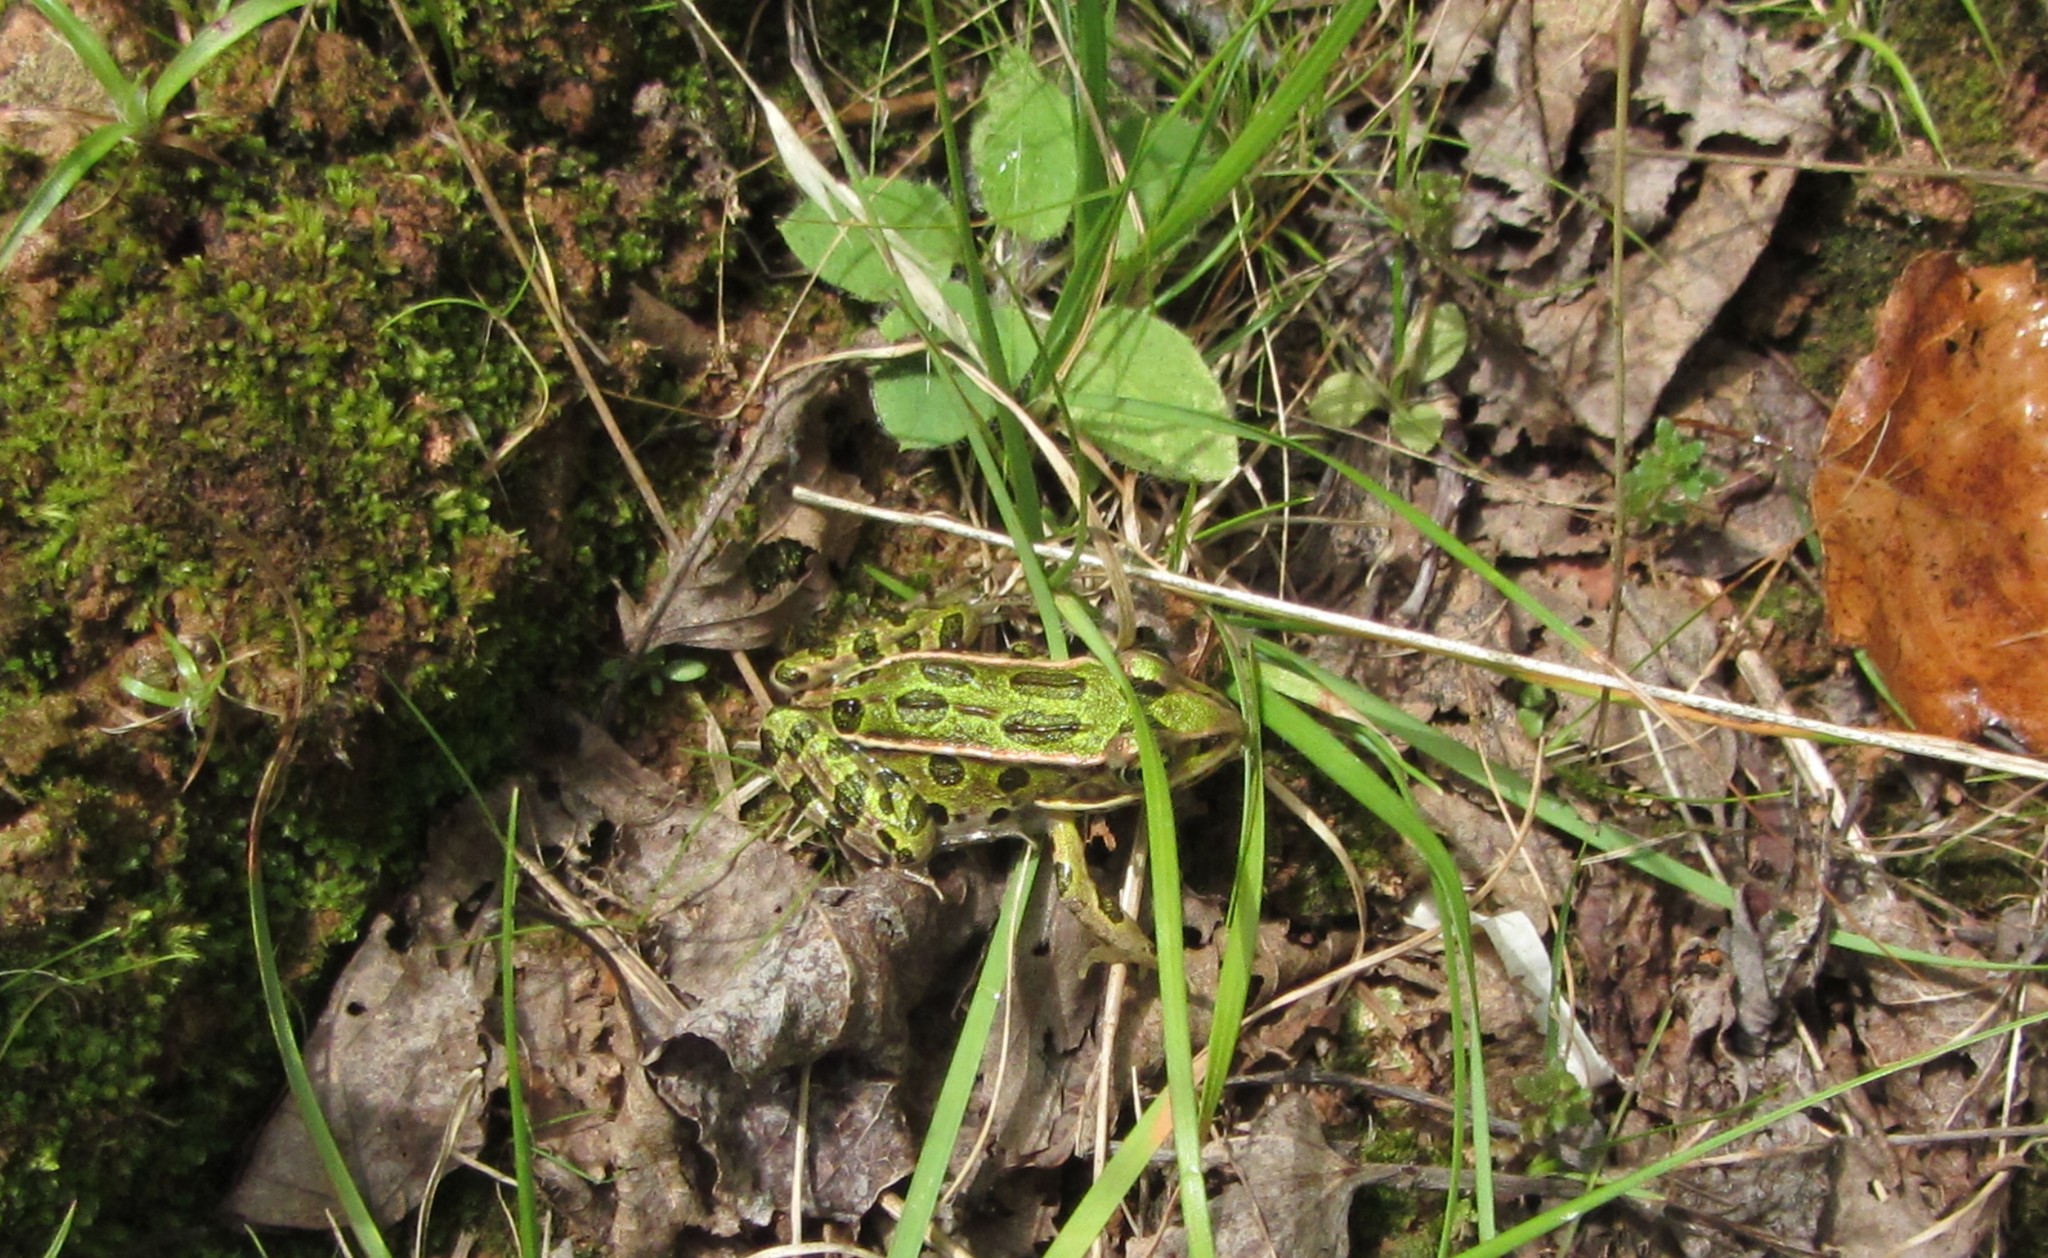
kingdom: Animalia
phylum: Chordata
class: Amphibia
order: Anura
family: Ranidae
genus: Lithobates
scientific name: Lithobates pipiens
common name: Northern leopard frog
